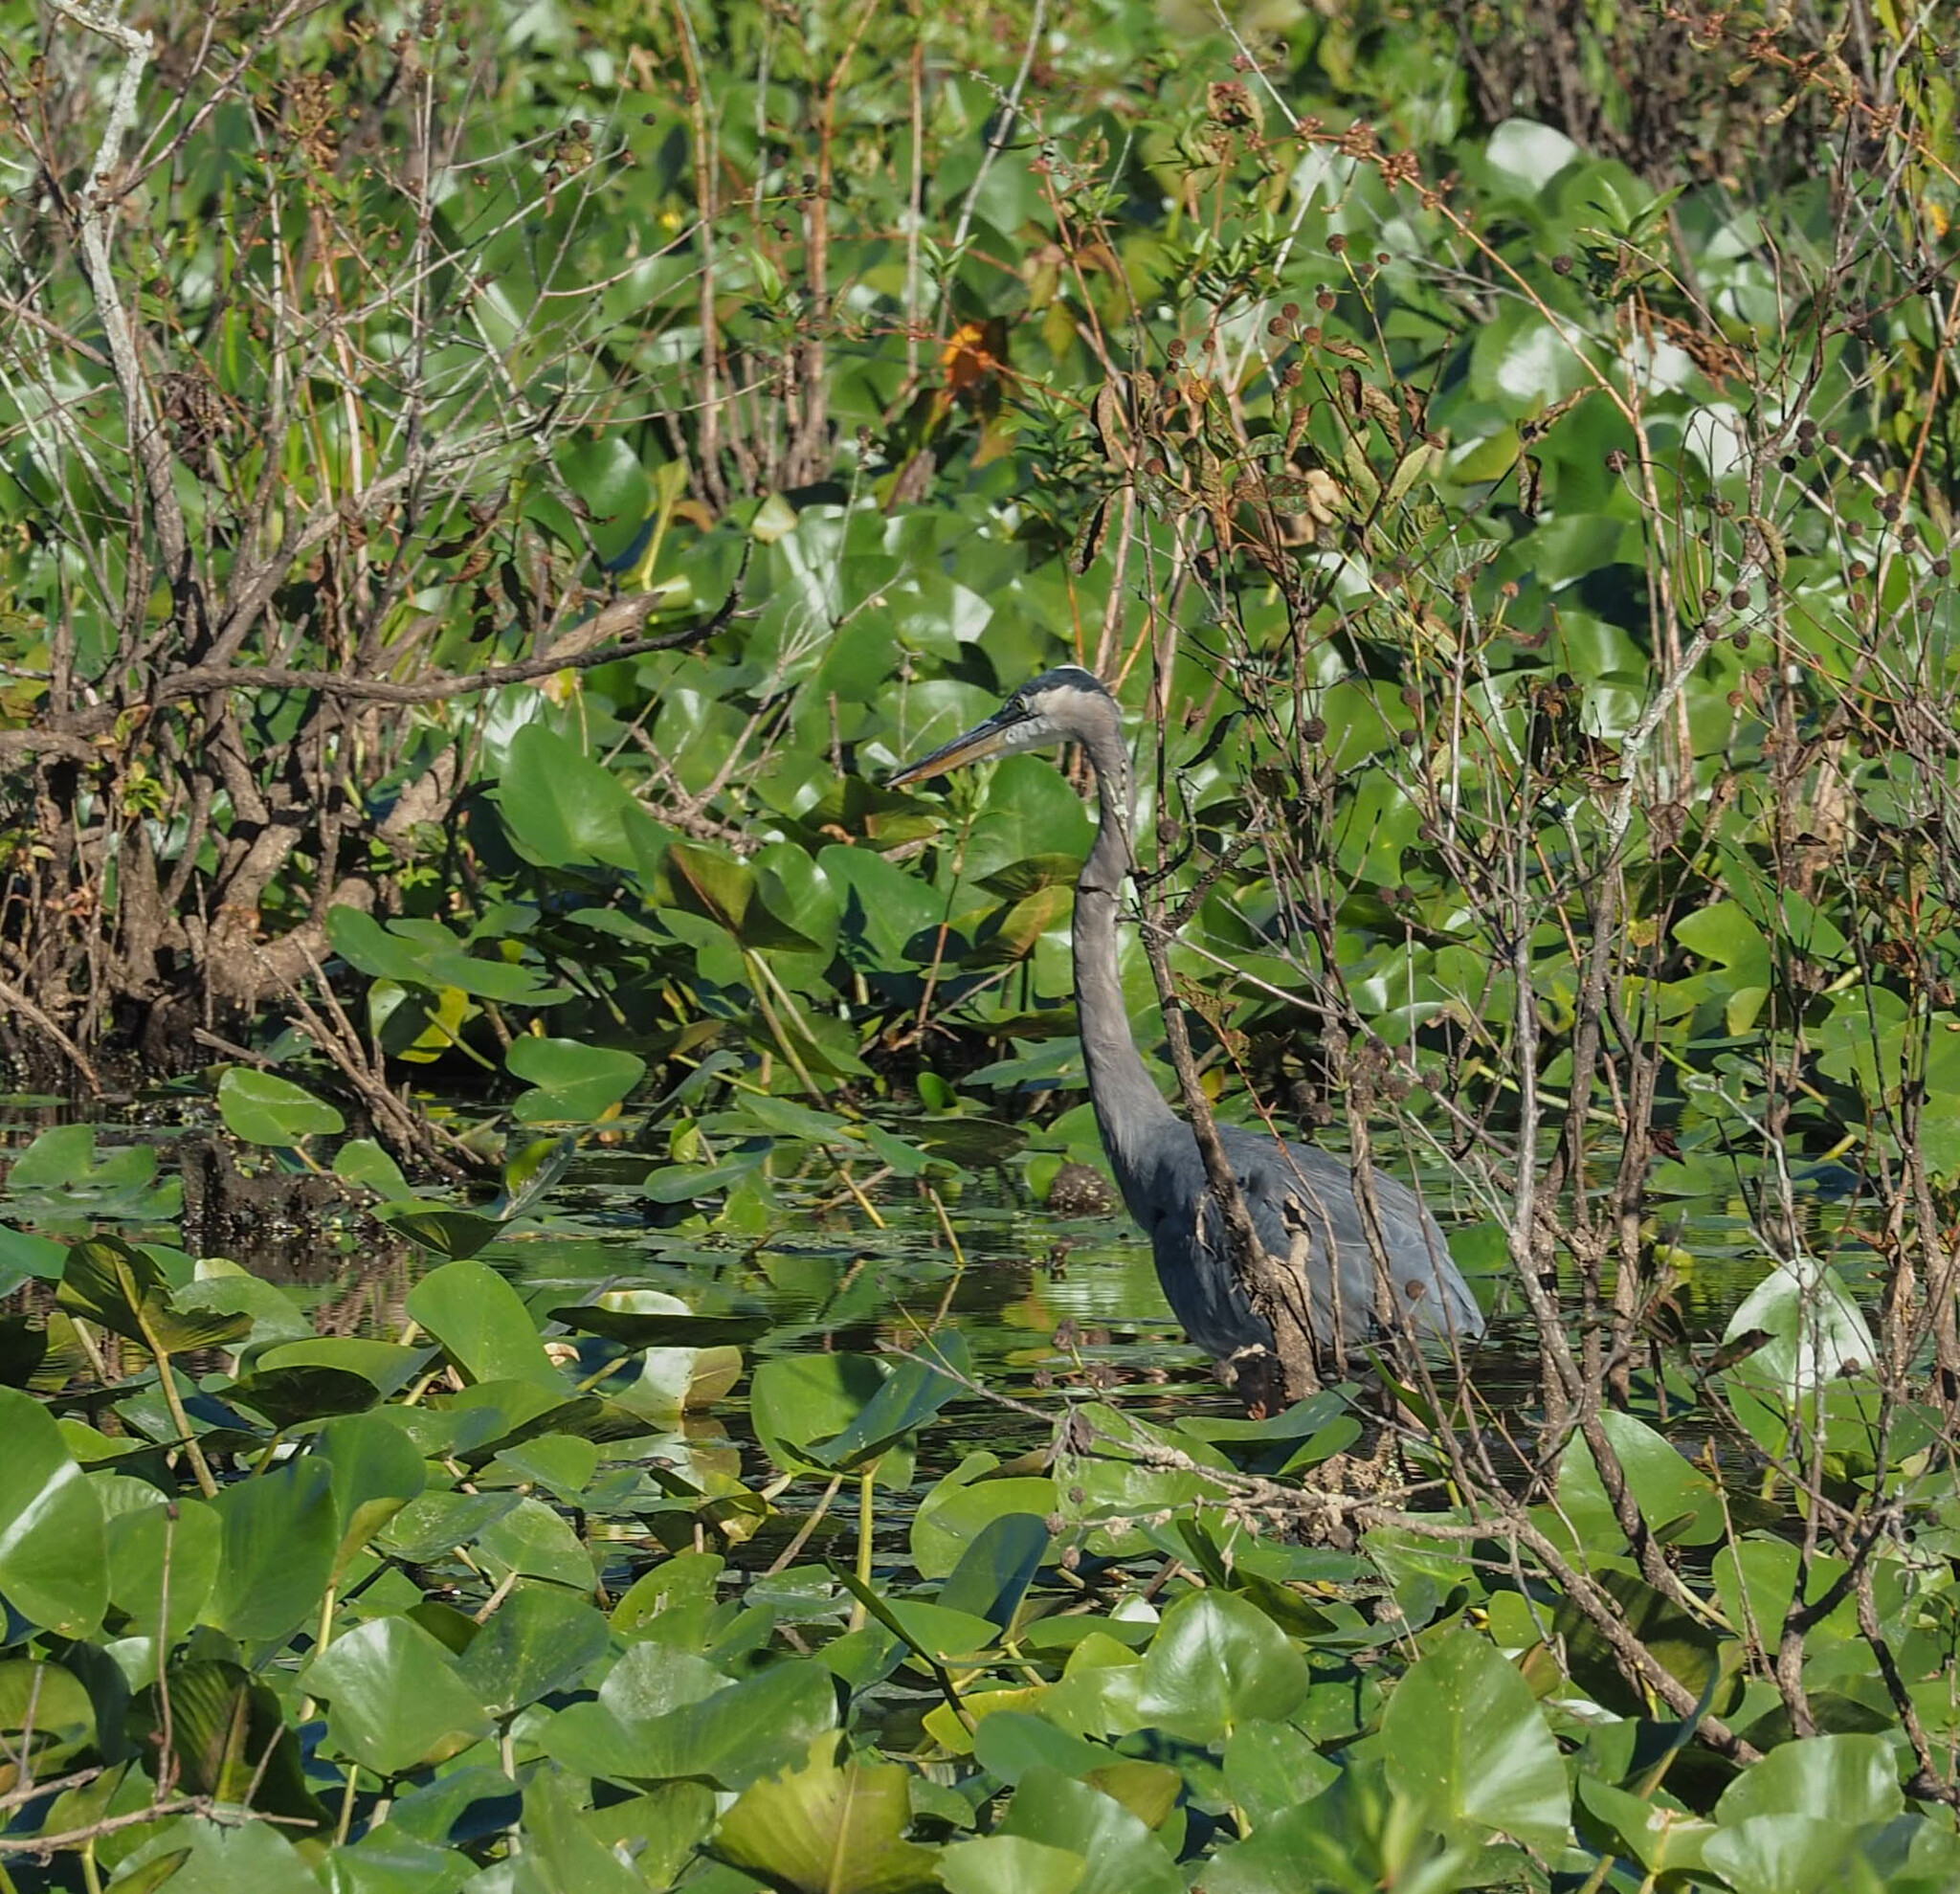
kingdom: Animalia
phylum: Chordata
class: Aves
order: Pelecaniformes
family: Ardeidae
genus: Ardea
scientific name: Ardea herodias
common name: Great blue heron
